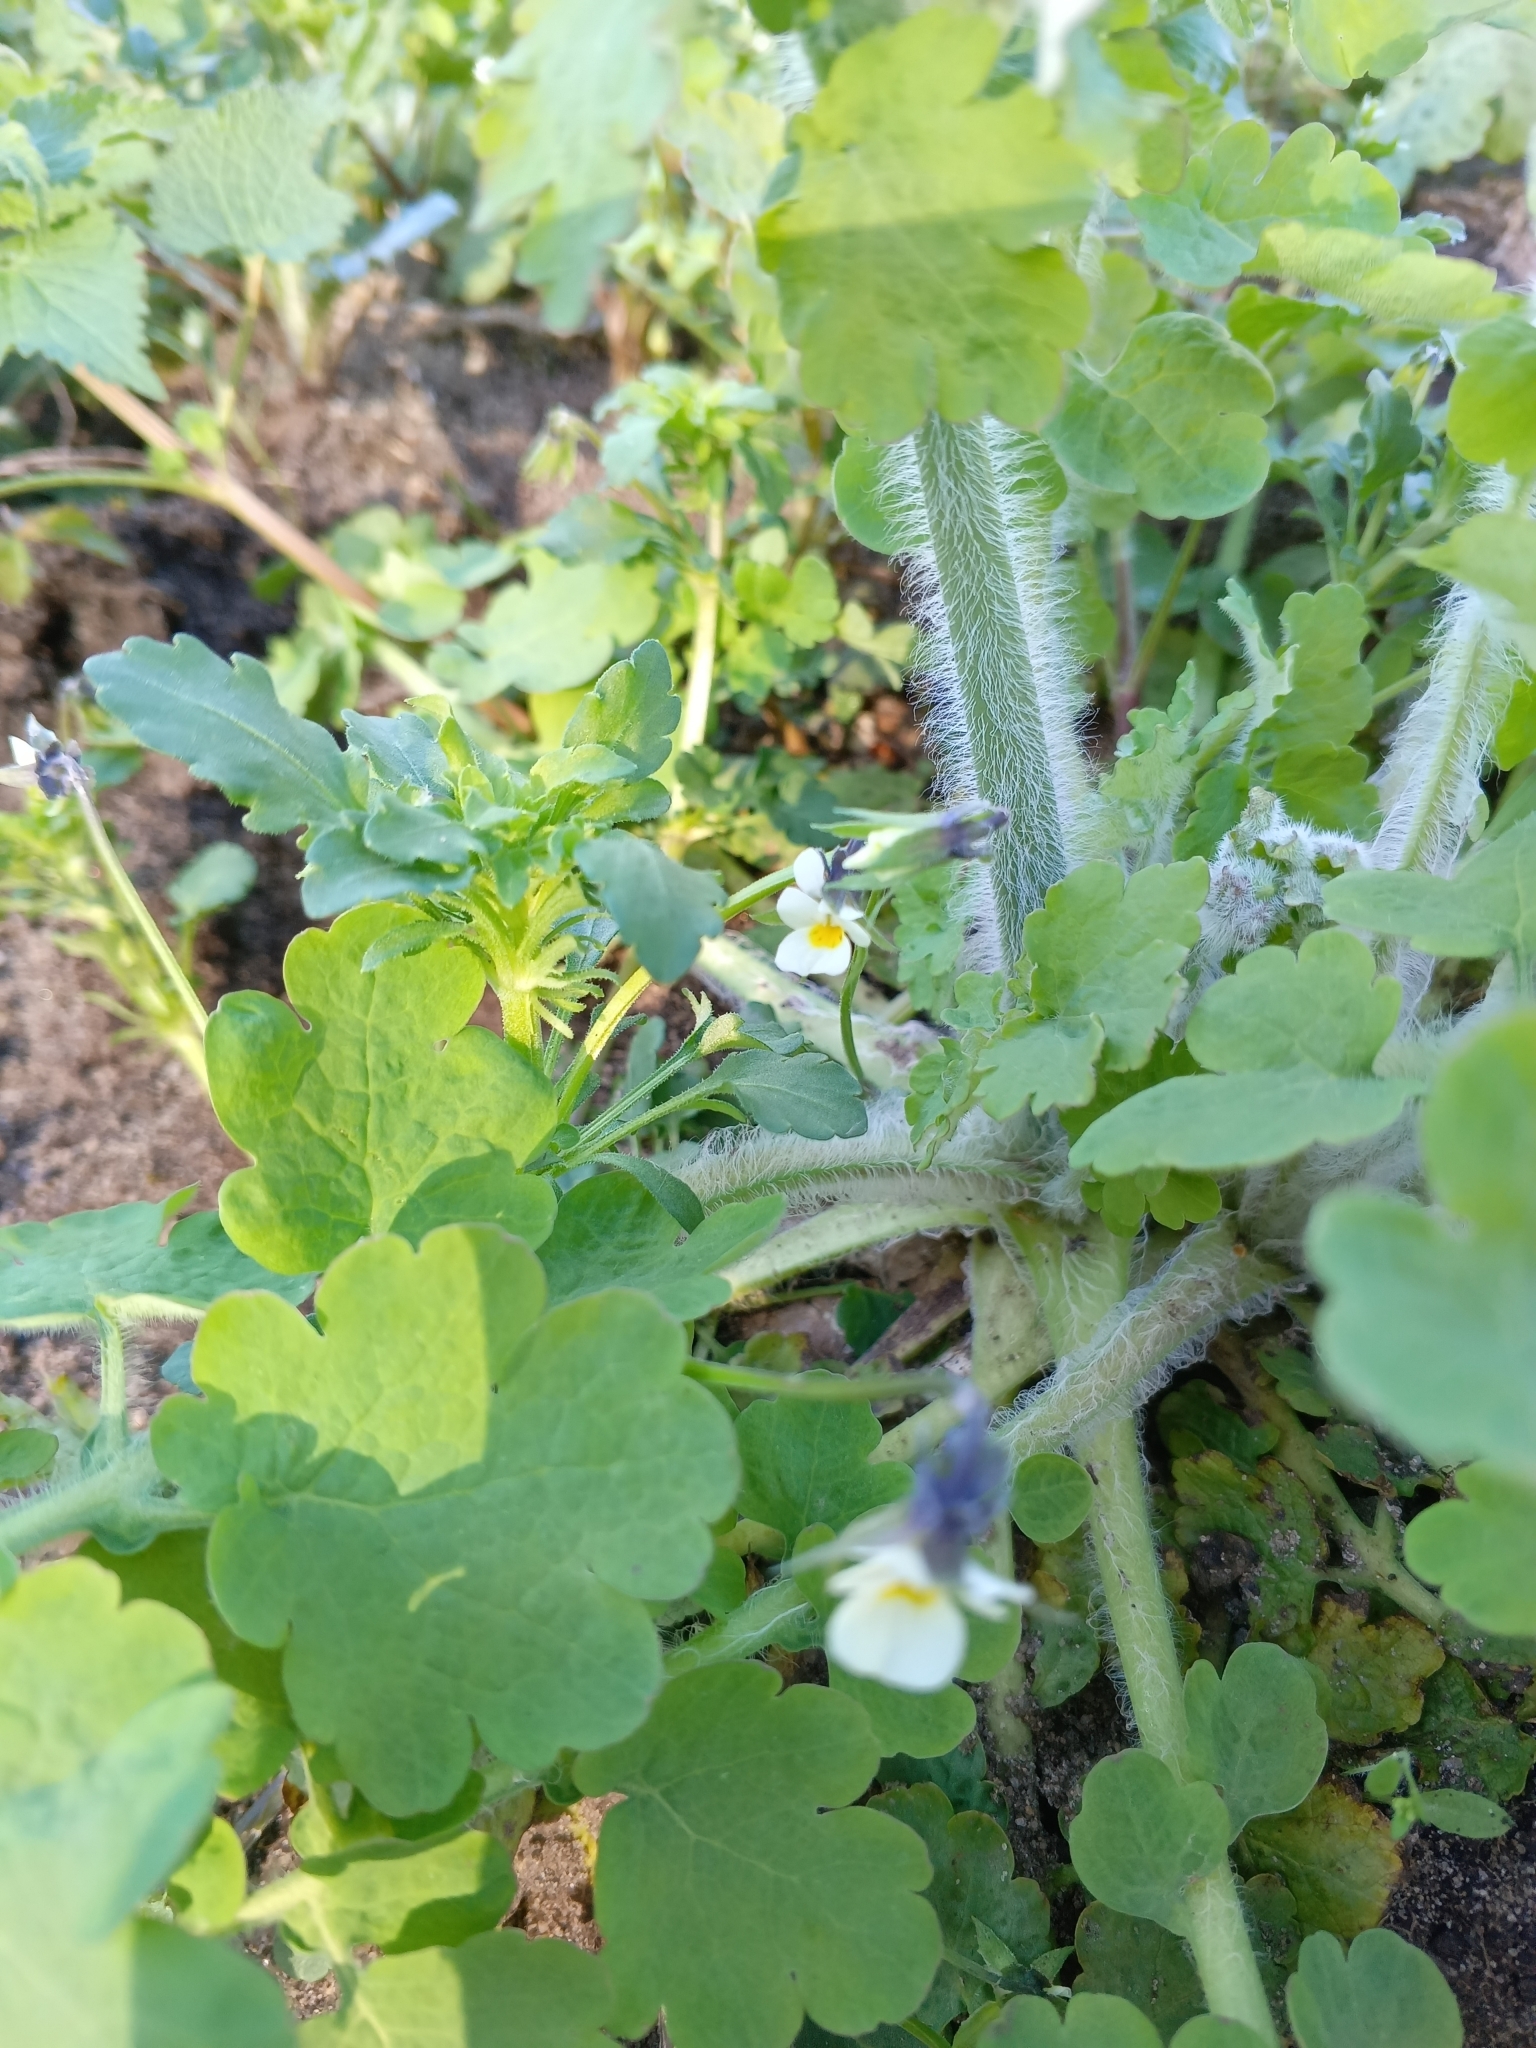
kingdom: Plantae
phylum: Tracheophyta
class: Magnoliopsida
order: Malpighiales
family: Violaceae
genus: Viola
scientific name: Viola arvensis
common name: Field pansy
